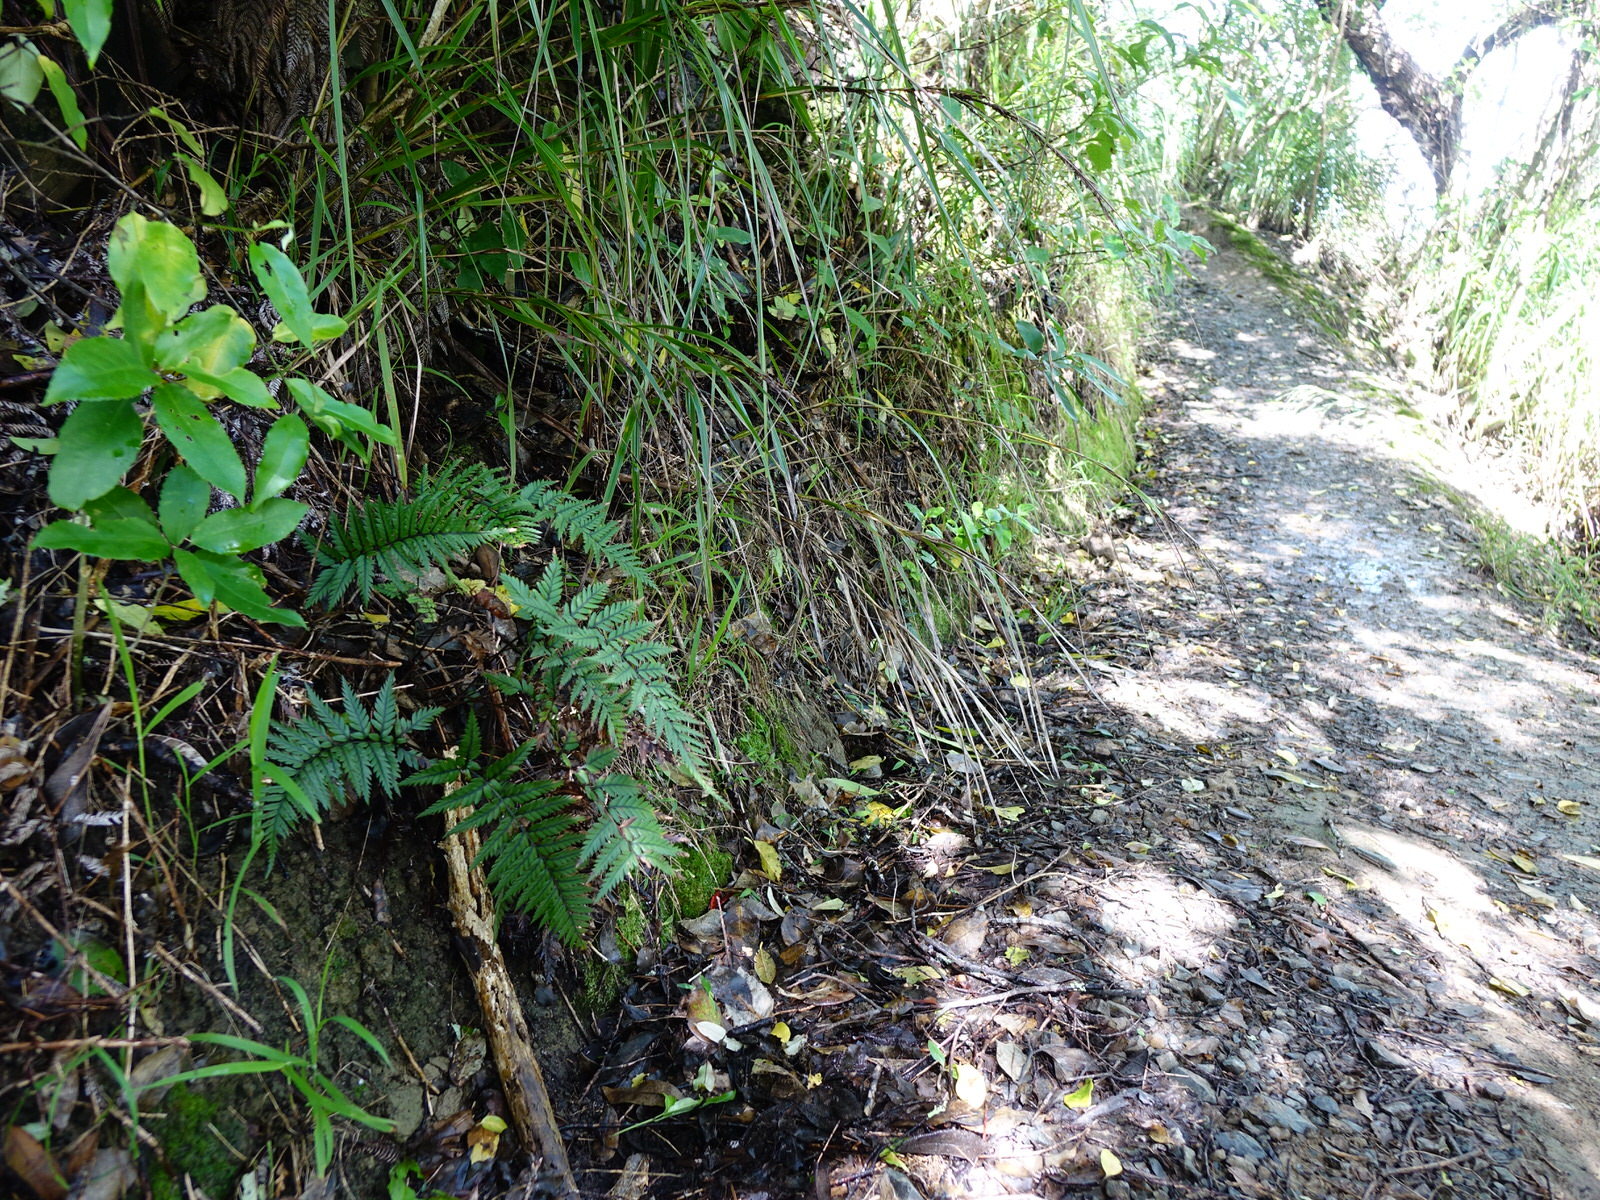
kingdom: Plantae
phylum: Tracheophyta
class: Polypodiopsida
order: Polypodiales
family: Dryopteridaceae
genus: Polystichum
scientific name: Polystichum neozelandicum
